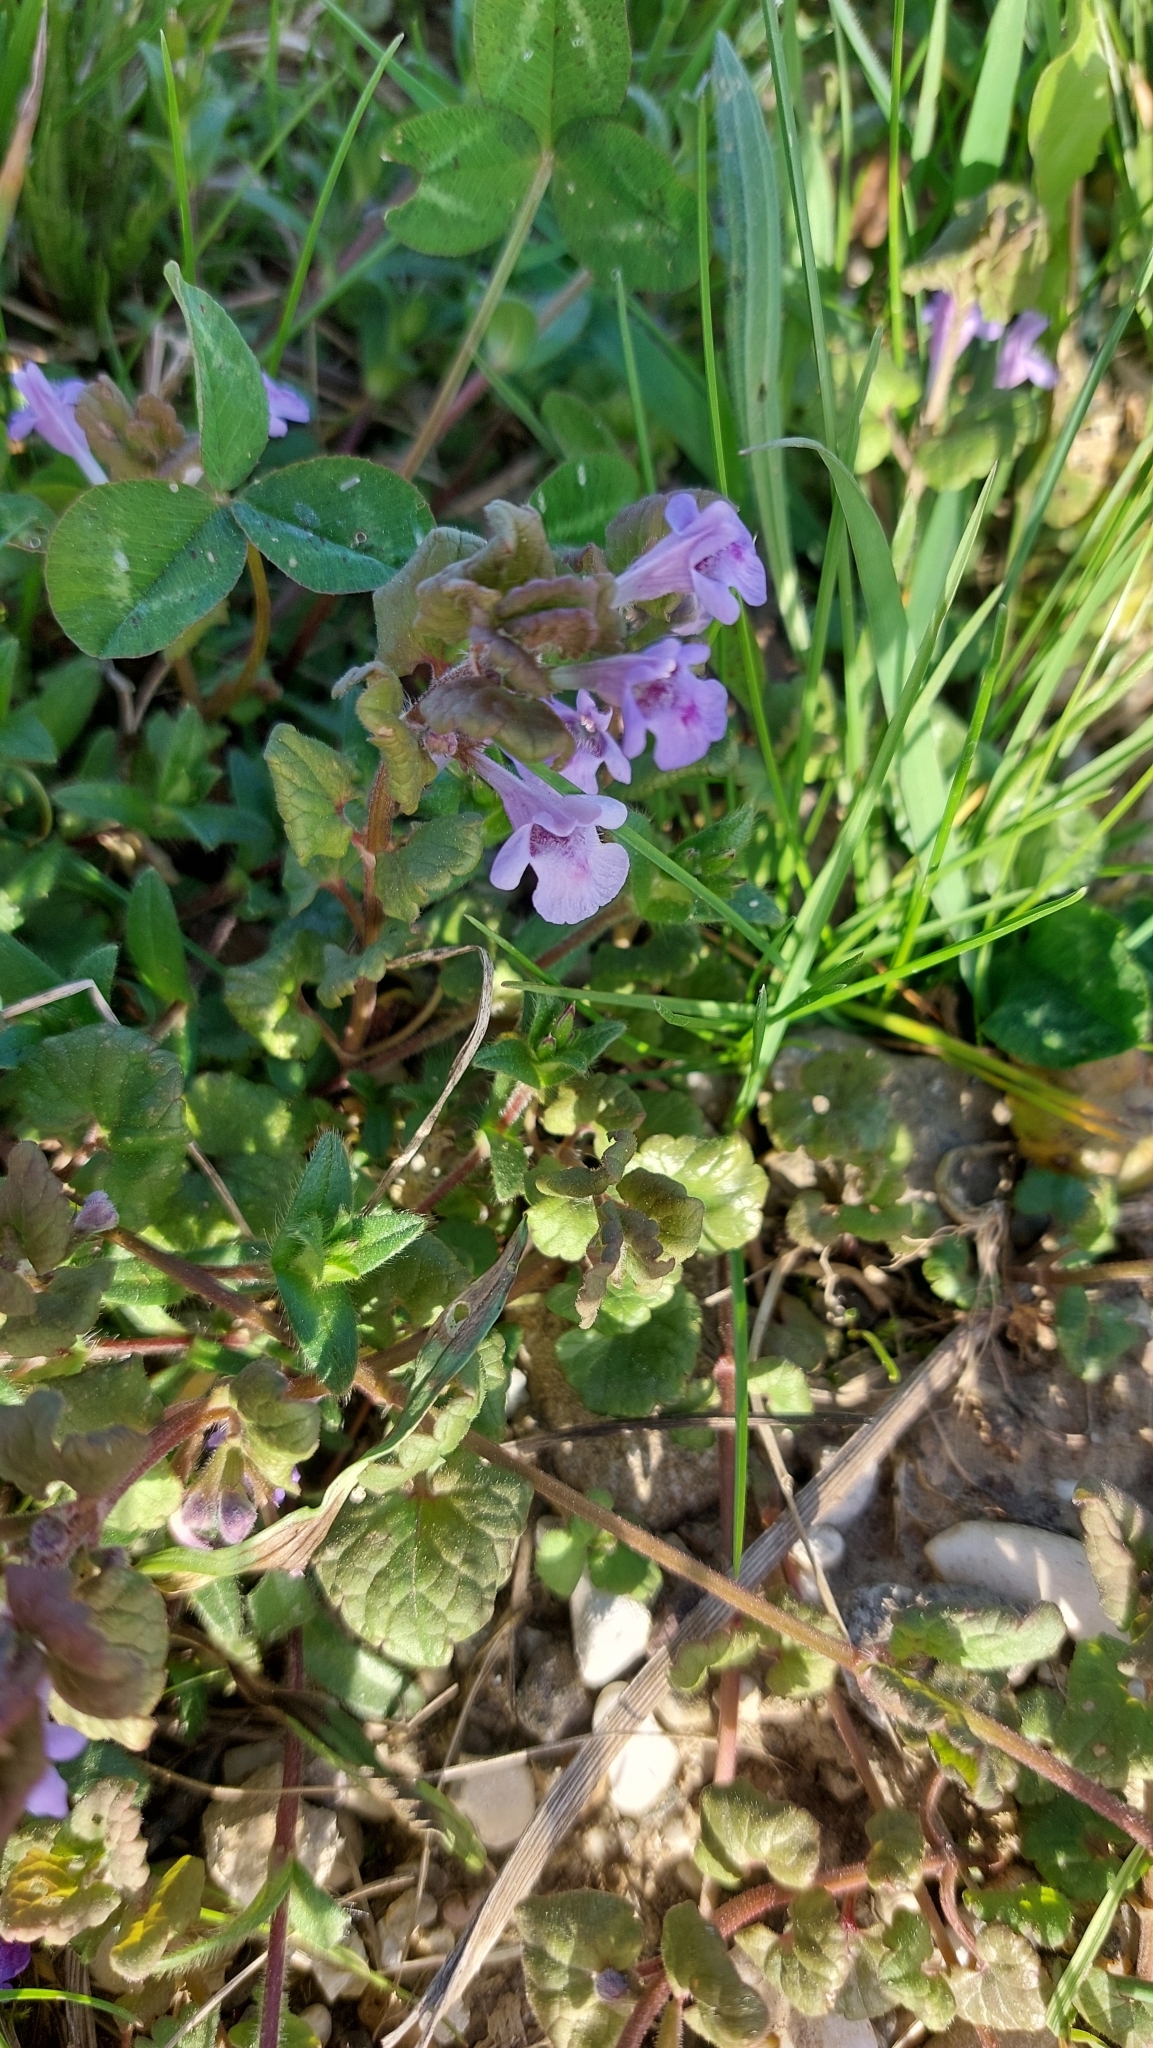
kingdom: Plantae
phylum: Tracheophyta
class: Magnoliopsida
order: Lamiales
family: Lamiaceae
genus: Glechoma
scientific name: Glechoma hederacea
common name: Ground ivy
